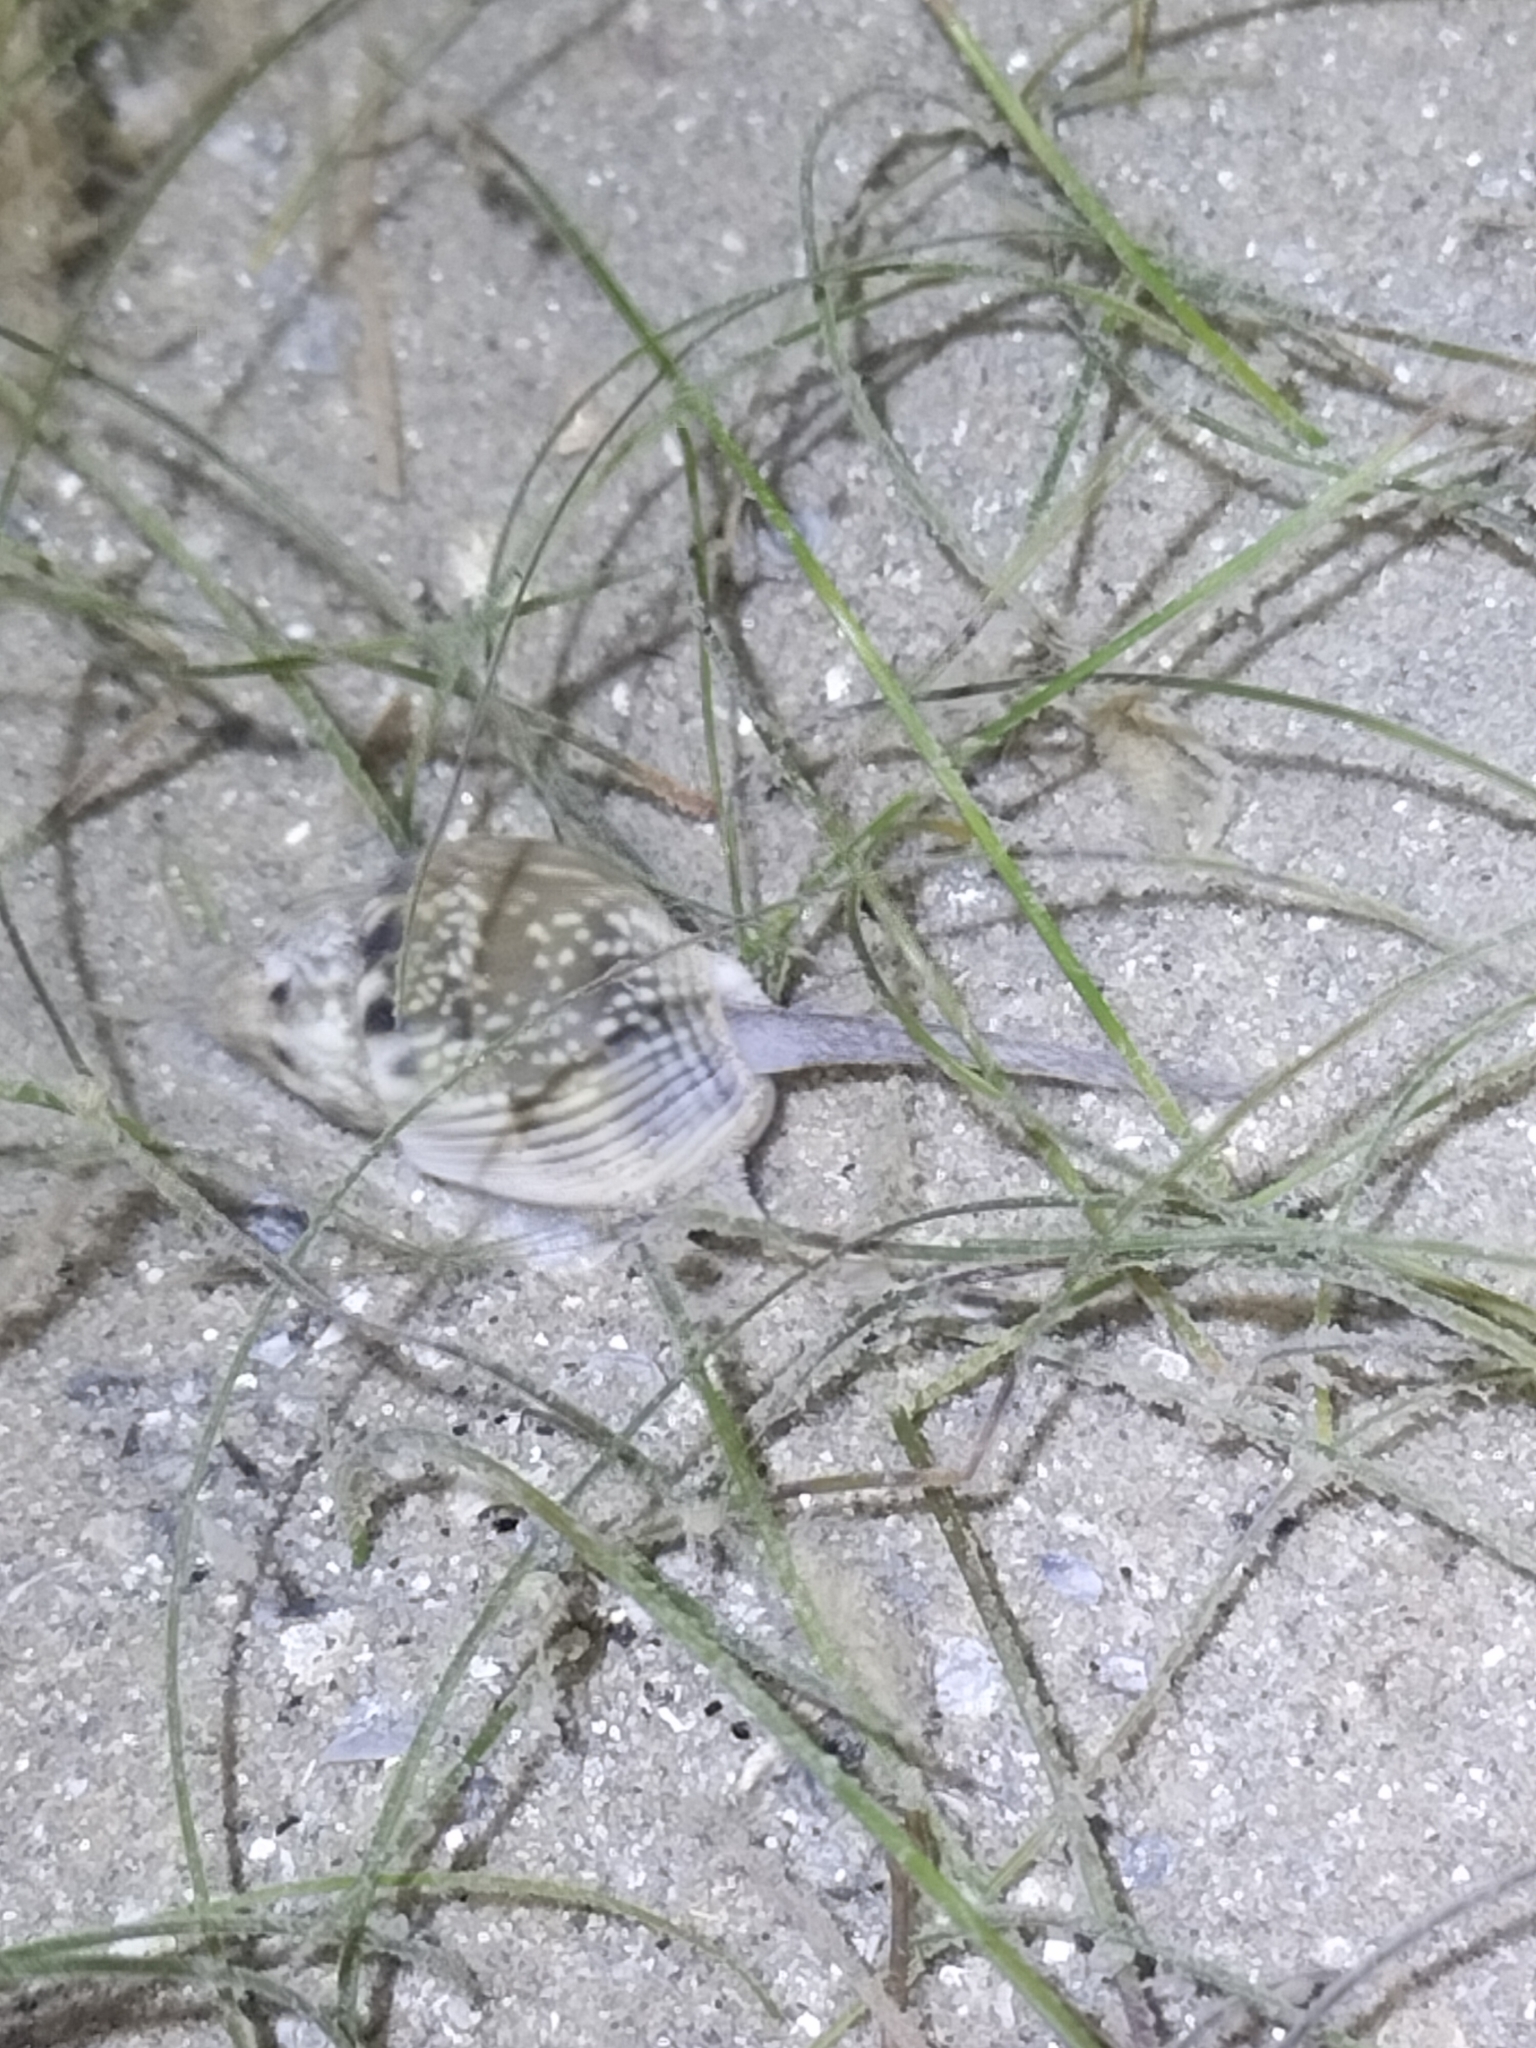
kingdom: Animalia
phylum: Mollusca
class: Gastropoda
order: Neogastropoda
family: Nassariidae
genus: Nassarius
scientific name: Nassarius pullus
